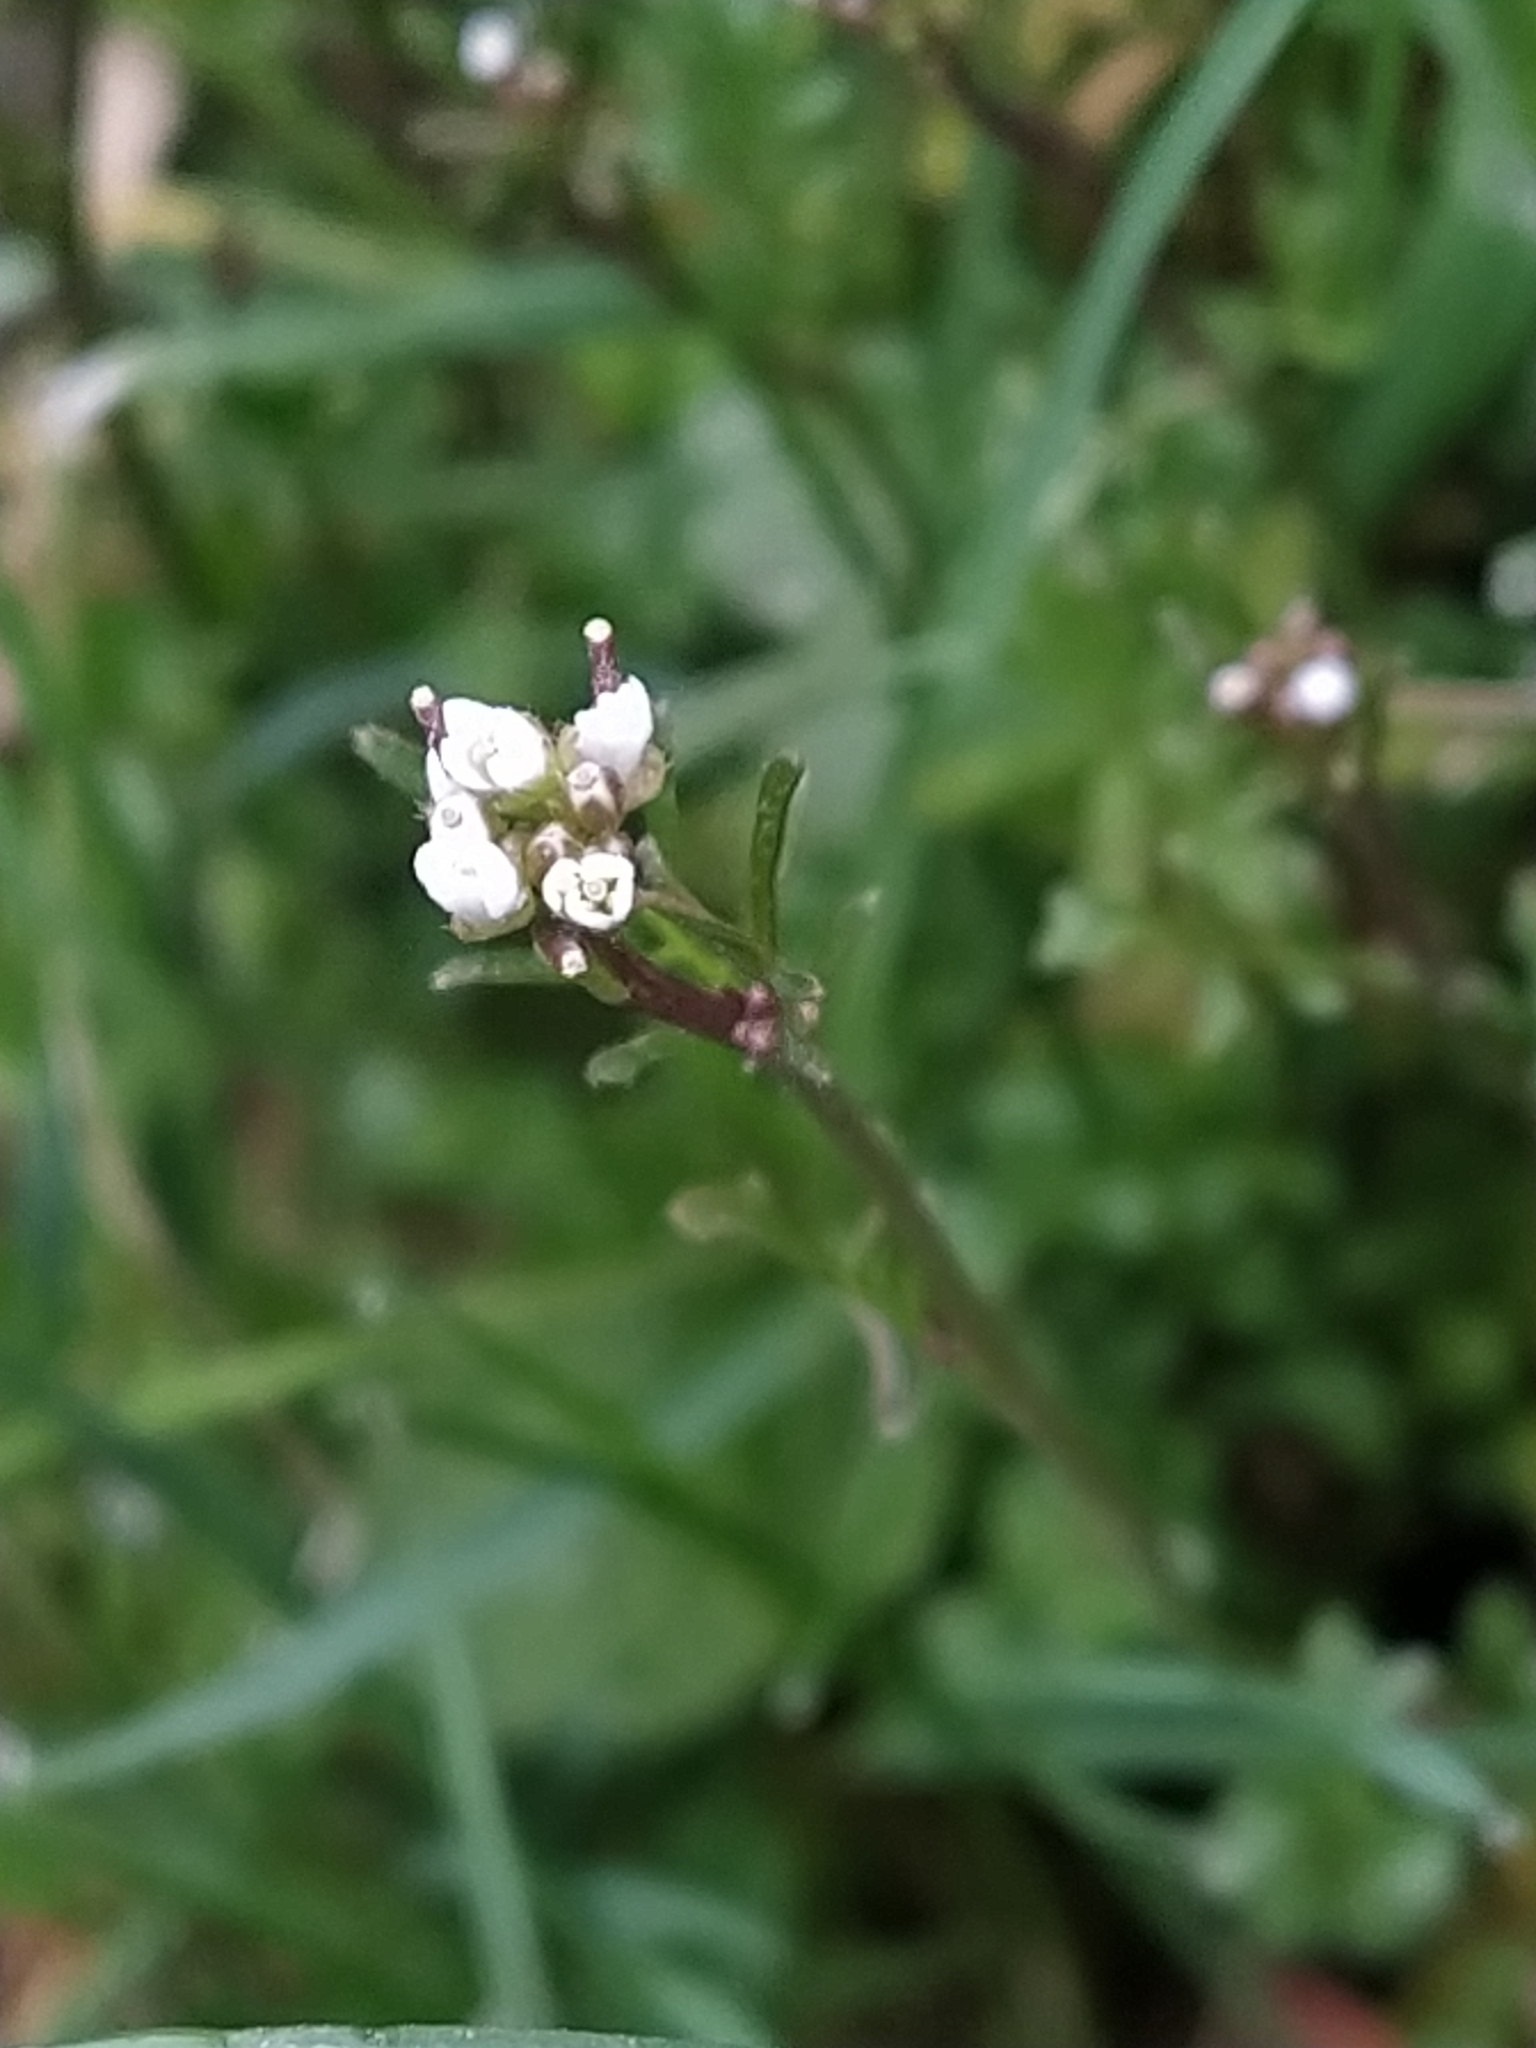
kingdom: Plantae
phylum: Tracheophyta
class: Magnoliopsida
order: Brassicales
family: Brassicaceae
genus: Cardamine
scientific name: Cardamine hirsuta
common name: Hairy bittercress
